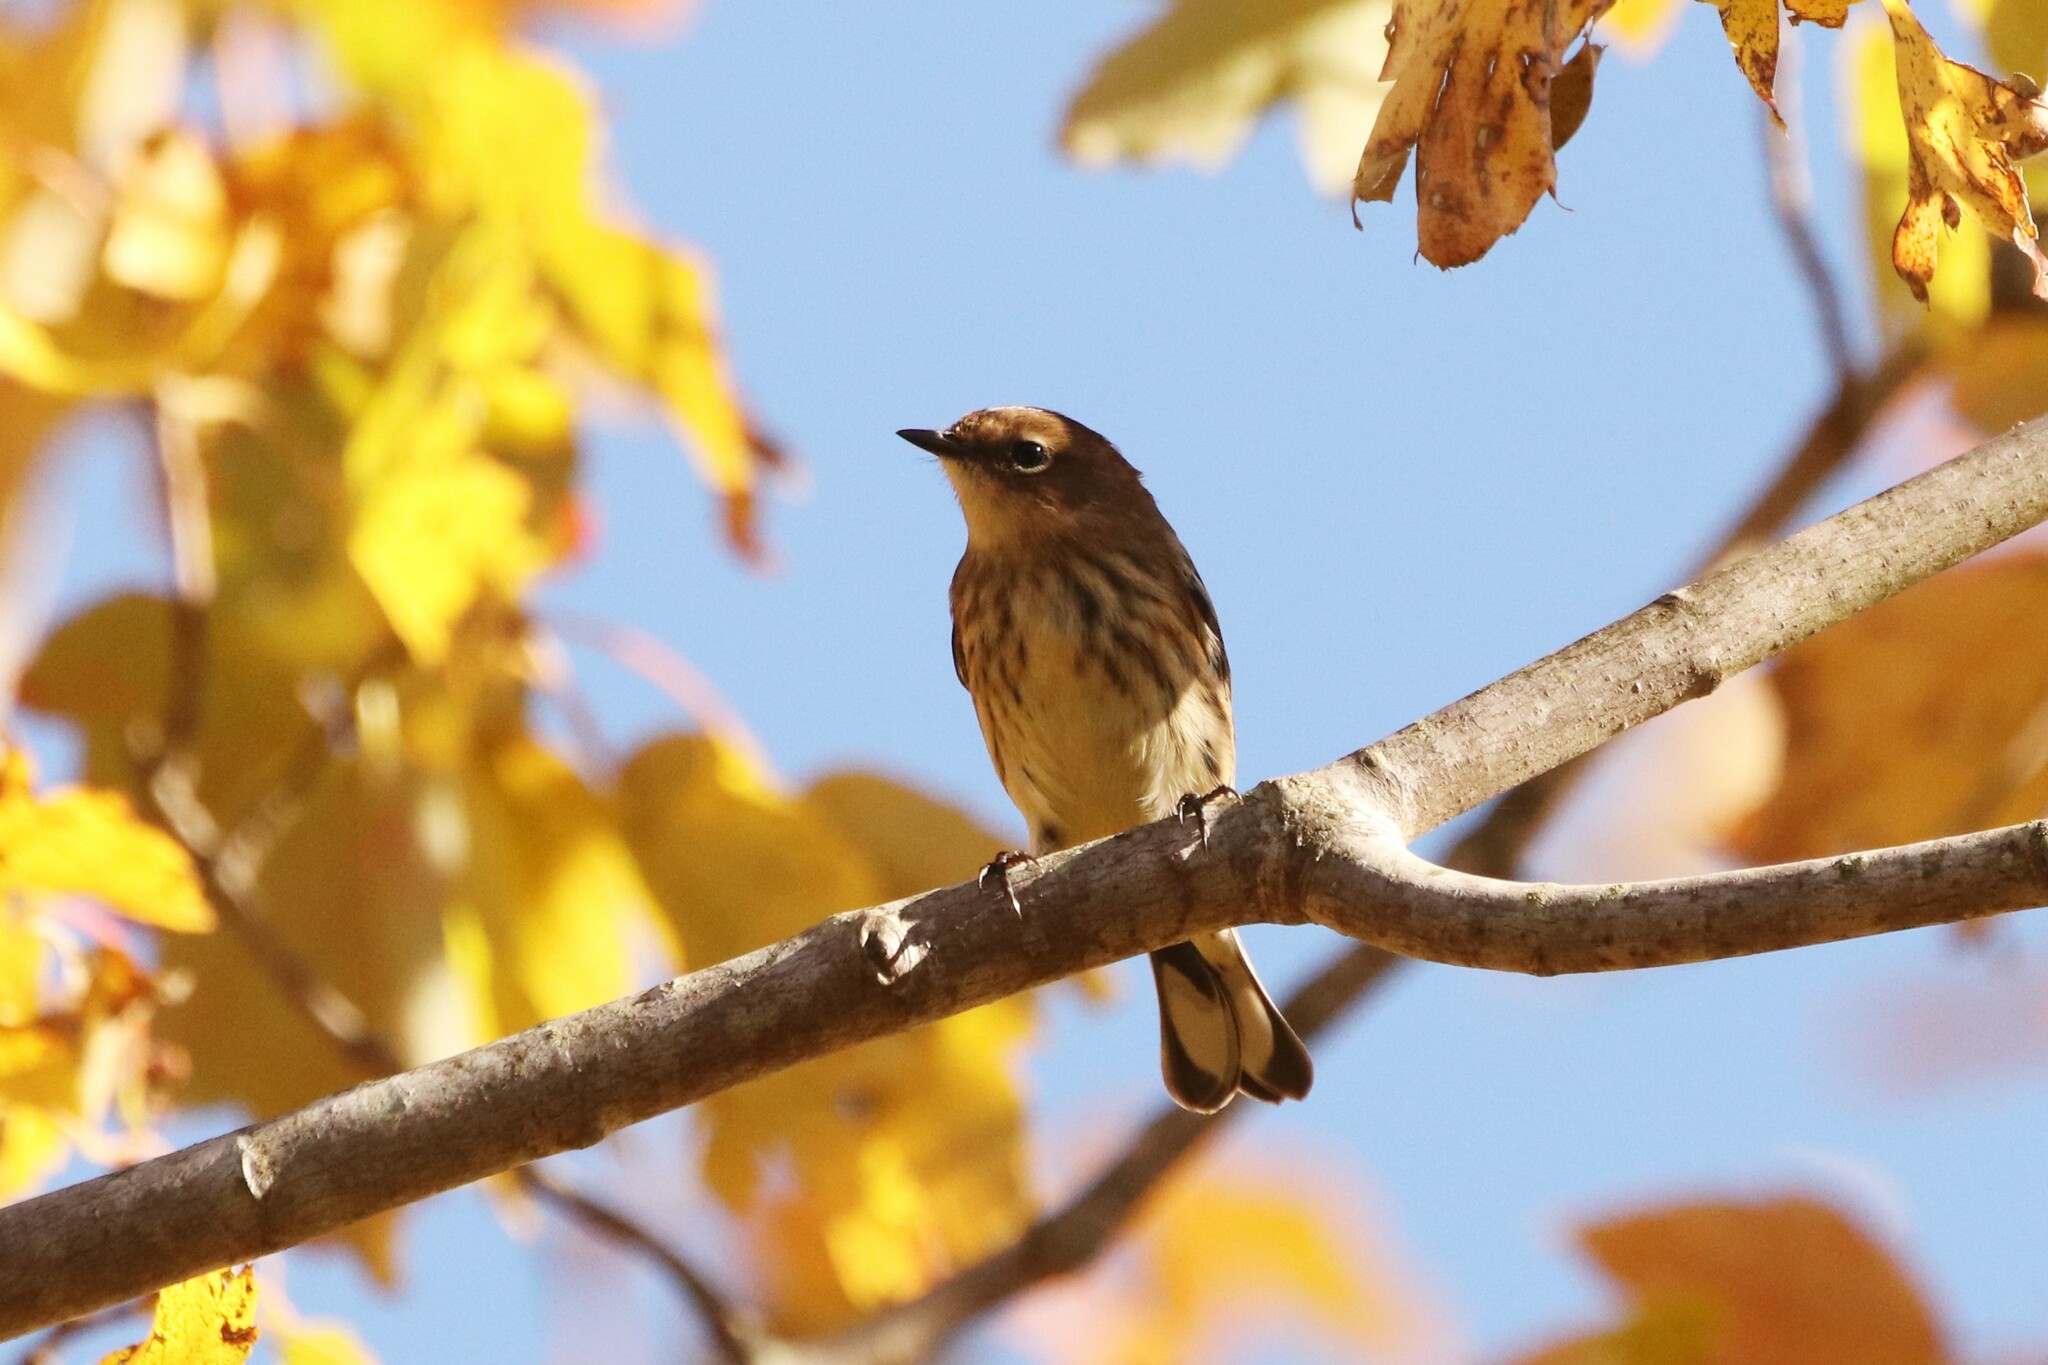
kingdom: Animalia
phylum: Chordata
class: Aves
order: Passeriformes
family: Parulidae
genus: Setophaga
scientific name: Setophaga coronata
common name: Myrtle warbler
